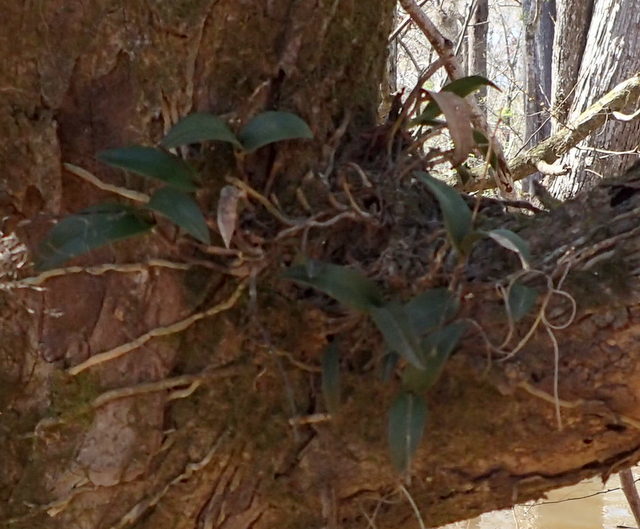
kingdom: Plantae
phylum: Tracheophyta
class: Liliopsida
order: Asparagales
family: Orchidaceae
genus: Epidendrum
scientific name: Epidendrum conopseum
